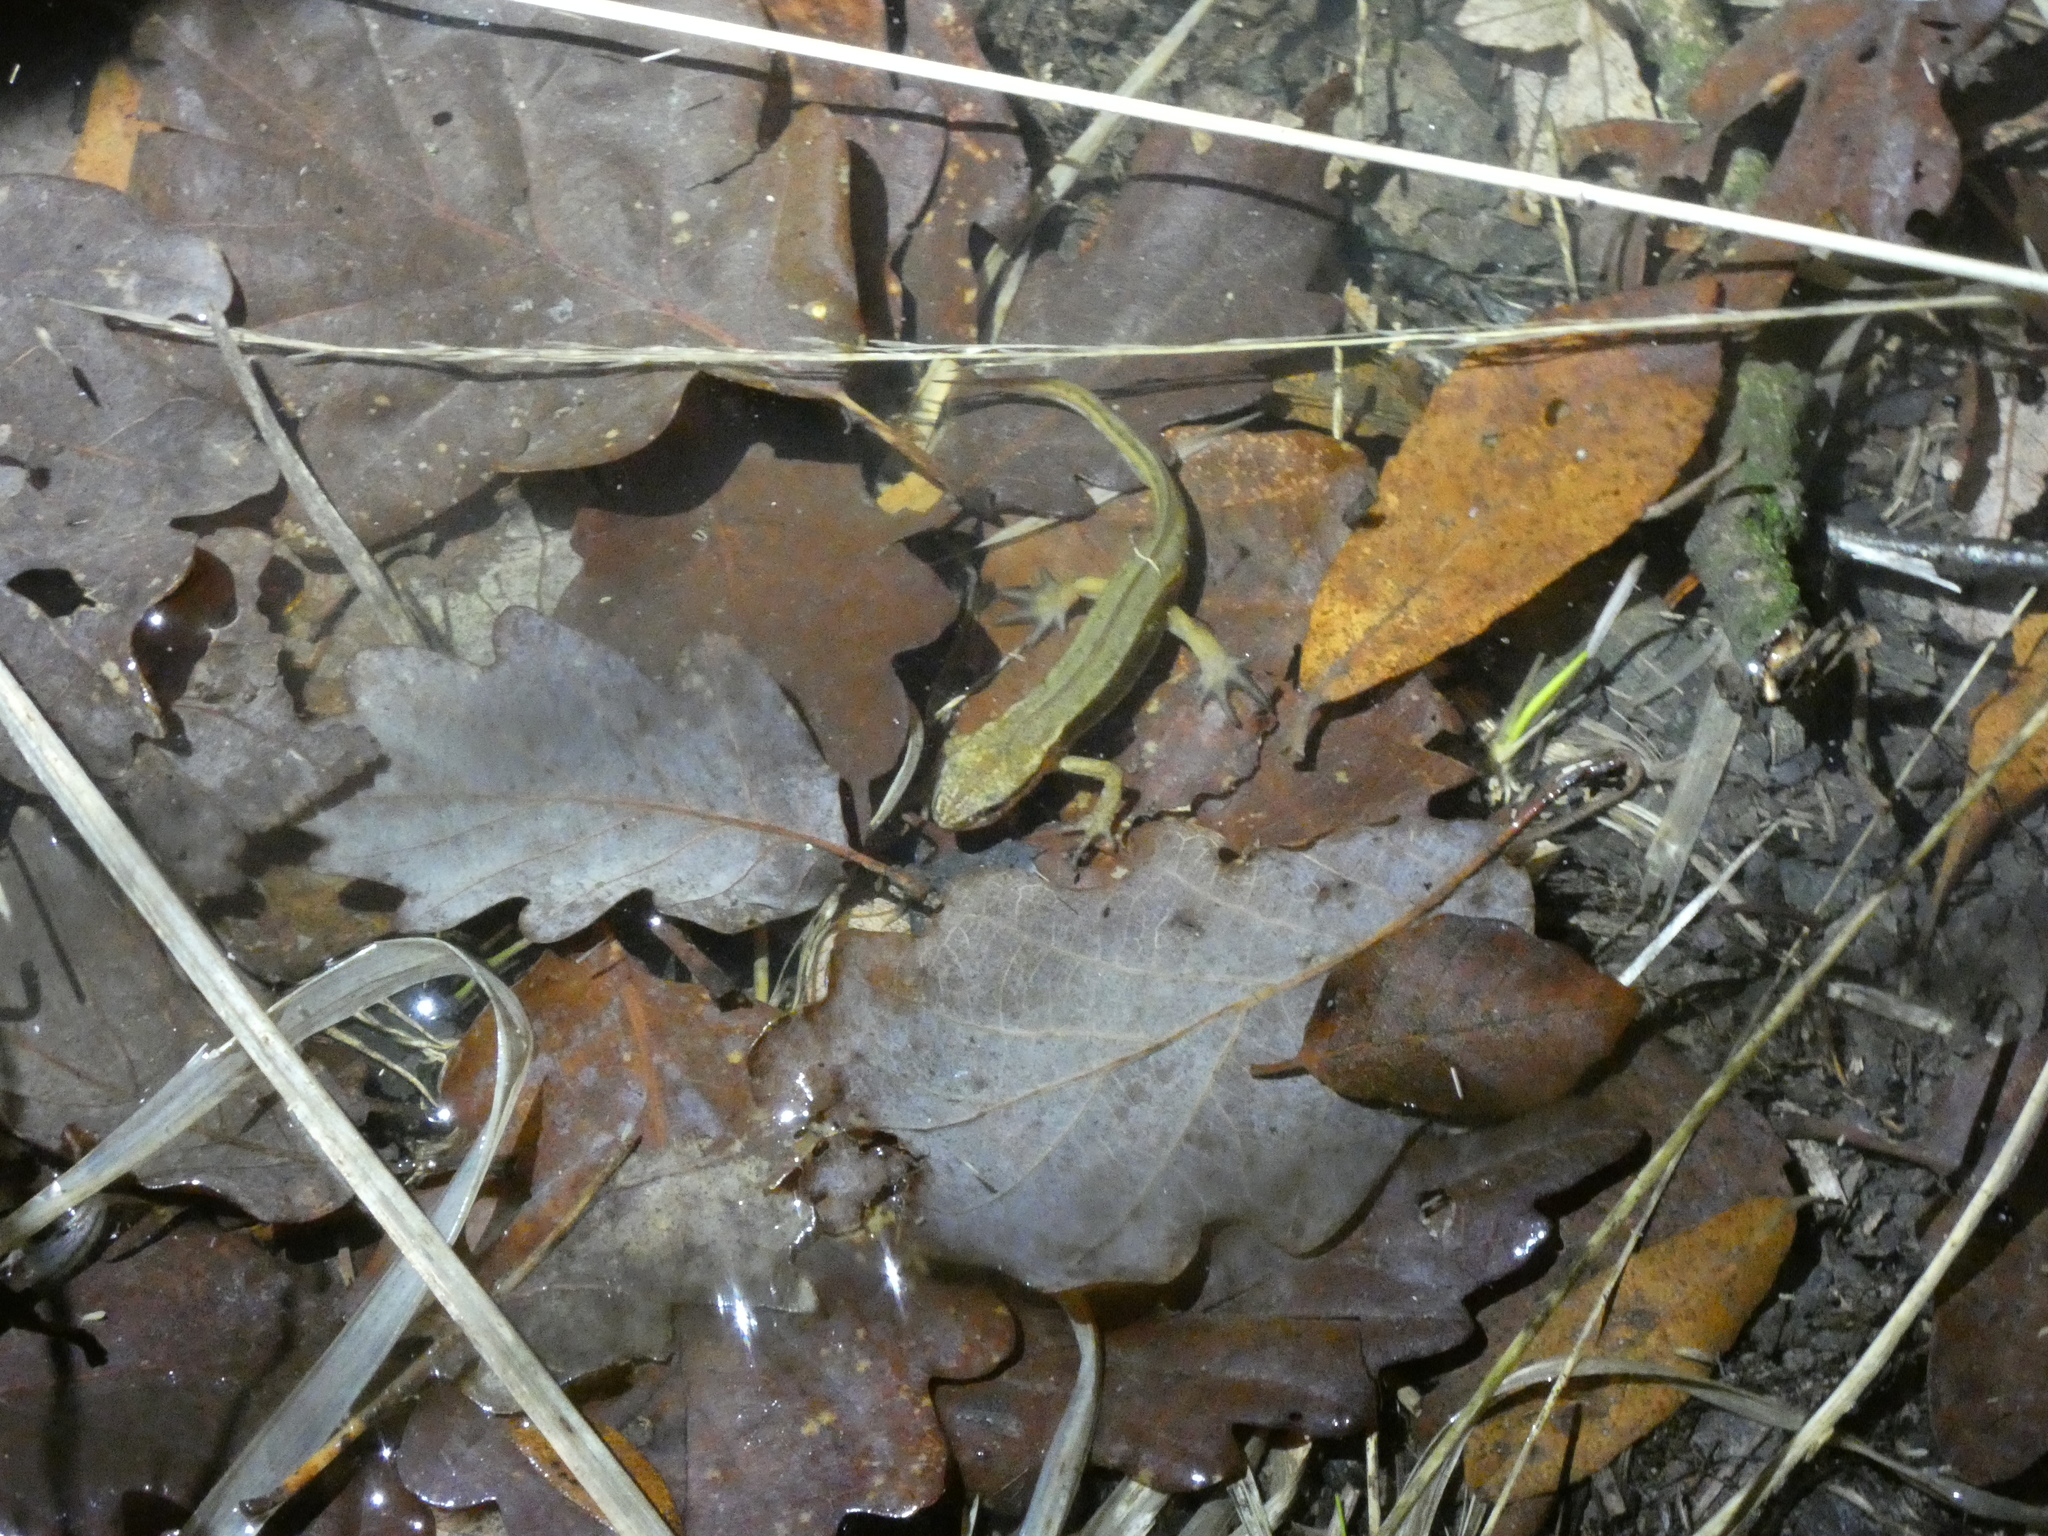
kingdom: Animalia
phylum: Chordata
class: Amphibia
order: Caudata
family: Salamandridae
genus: Lissotriton
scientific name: Lissotriton helveticus
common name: Palmate newt
